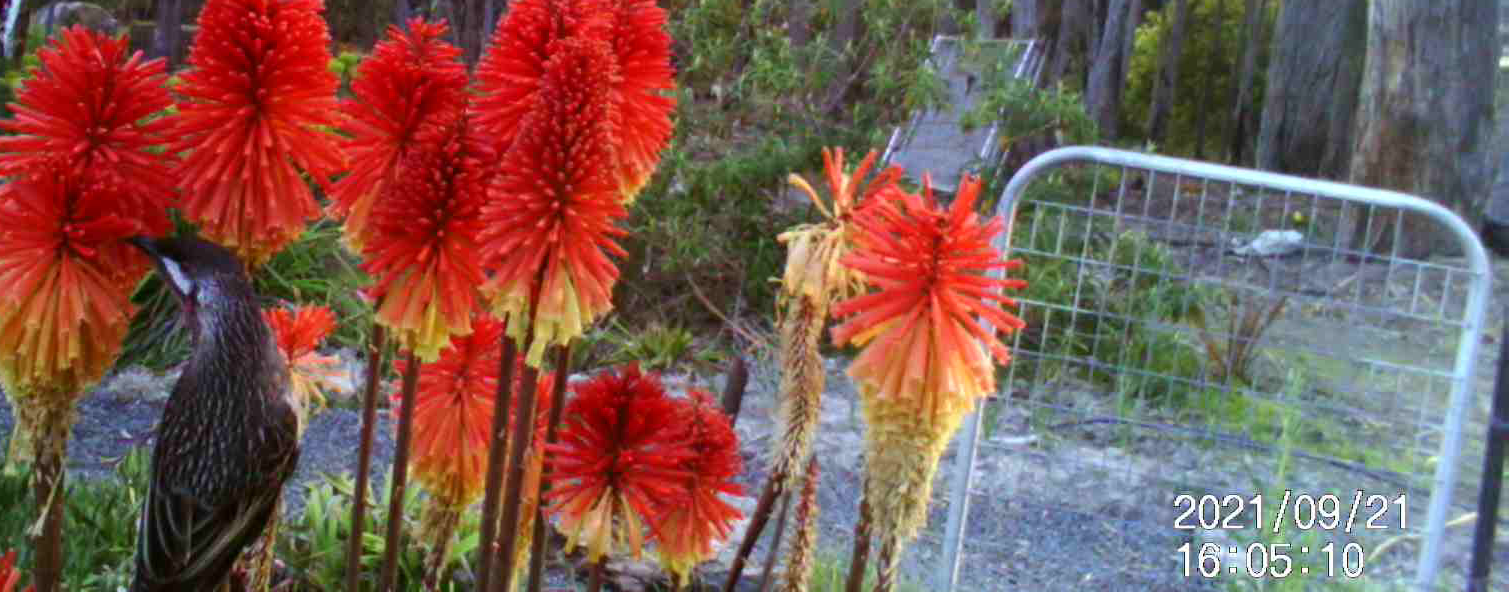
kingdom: Animalia
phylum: Chordata
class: Aves
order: Passeriformes
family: Meliphagidae
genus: Anthochaera
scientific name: Anthochaera carunculata
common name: Red wattlebird
